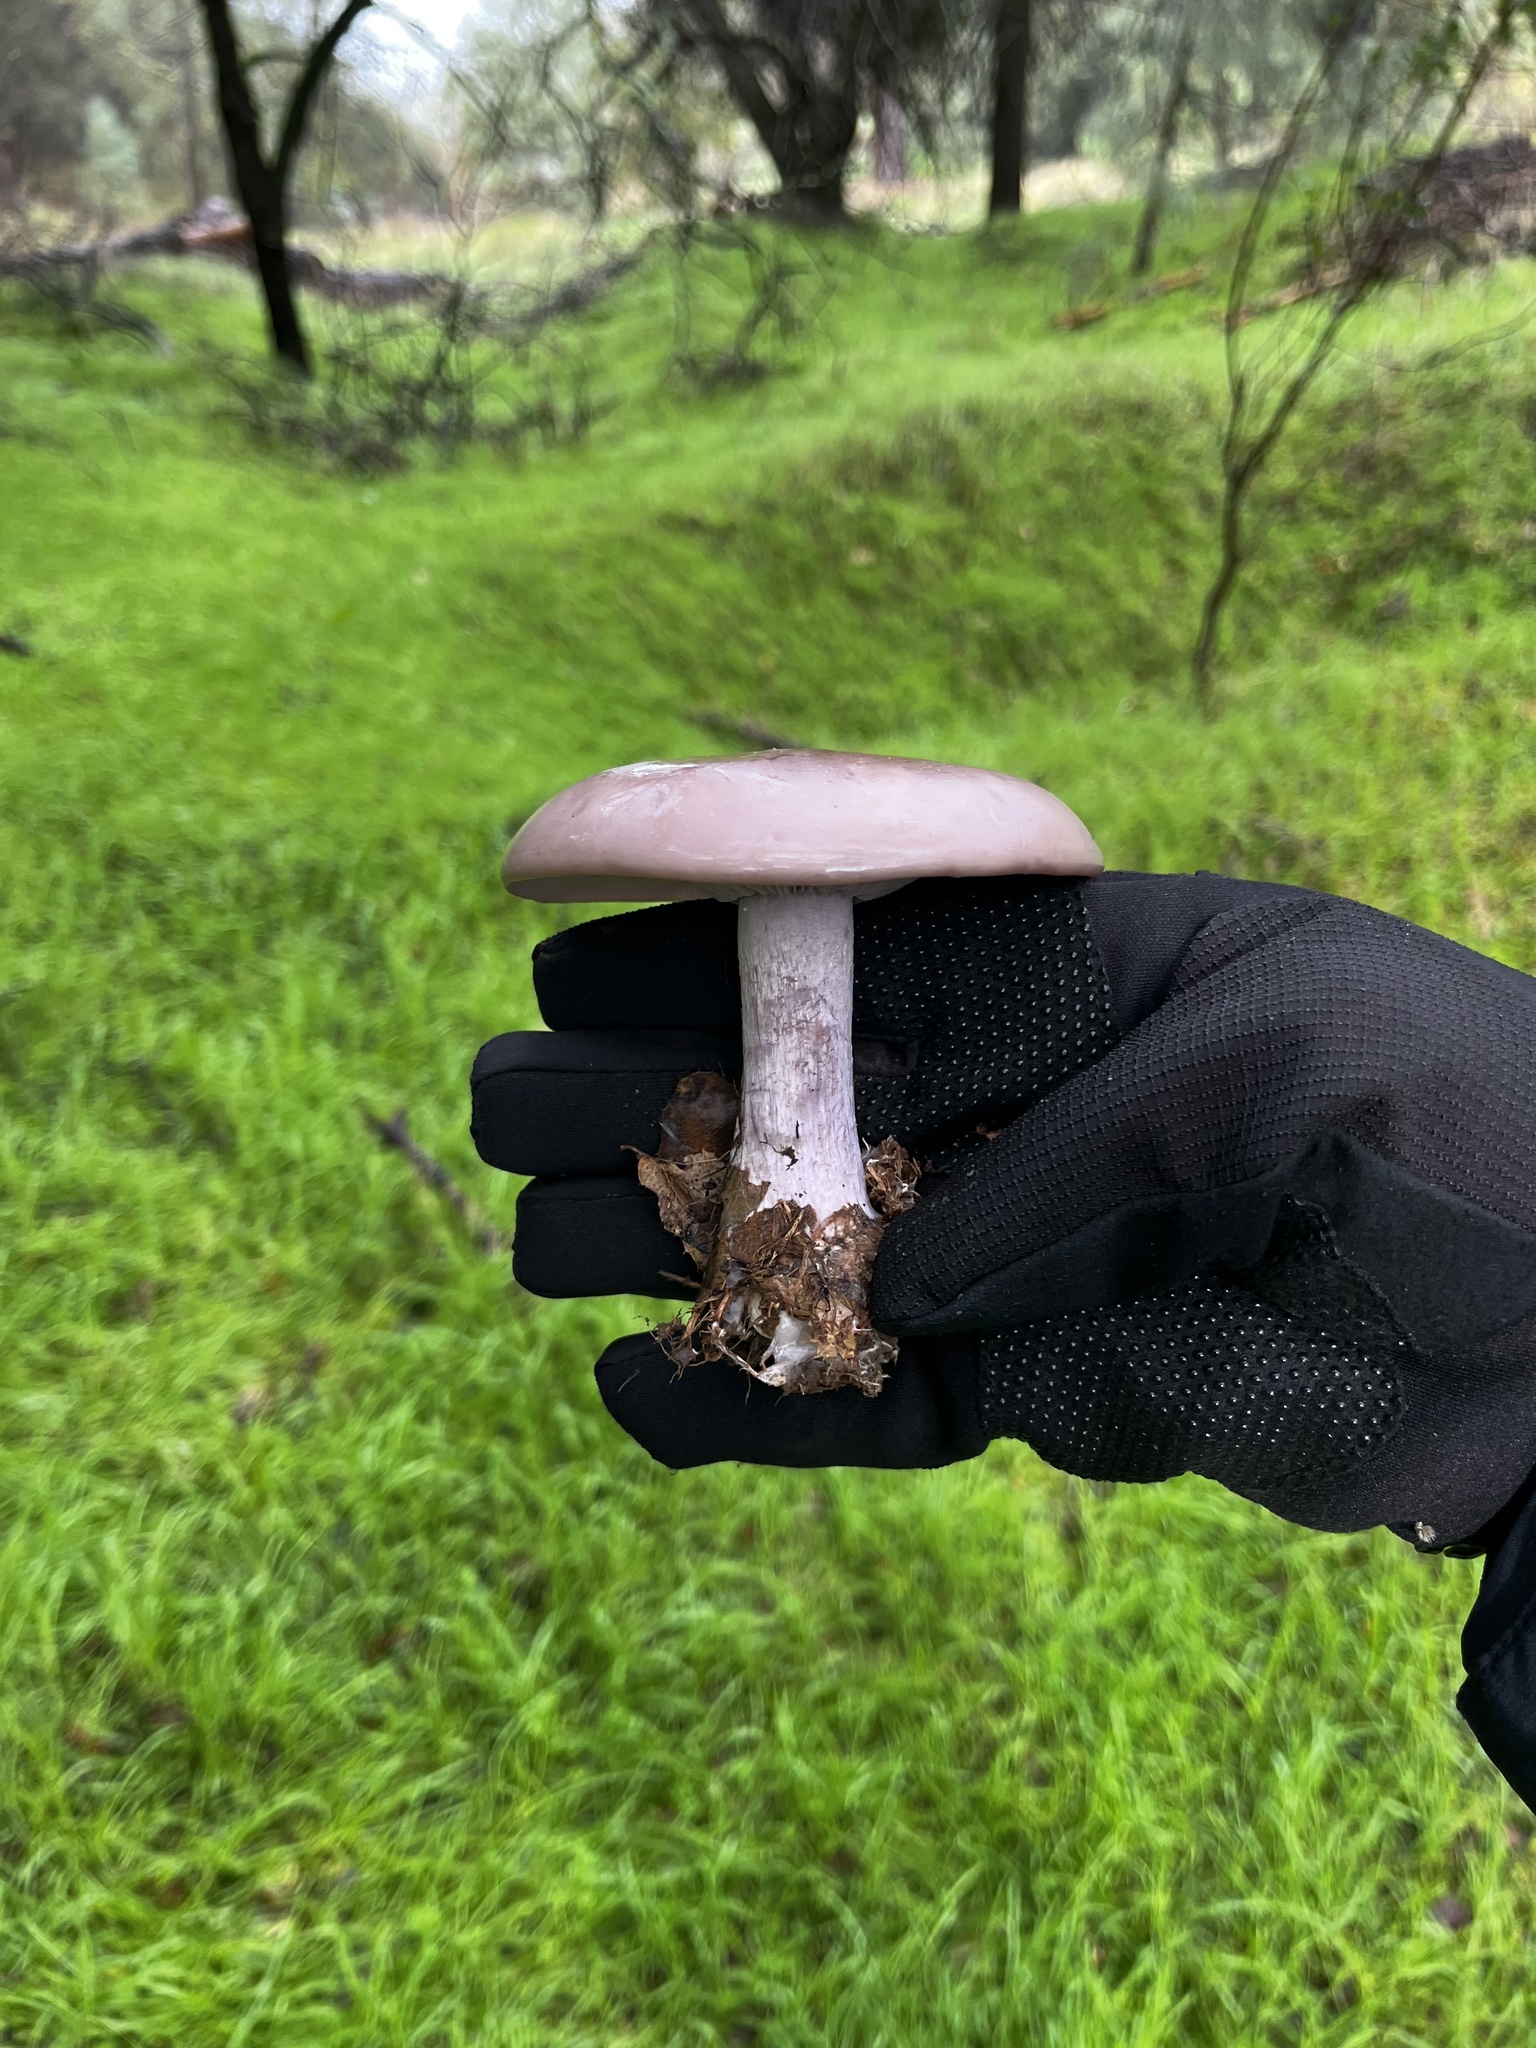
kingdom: Fungi
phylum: Basidiomycota
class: Agaricomycetes
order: Agaricales
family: Tricholomataceae
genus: Collybia
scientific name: Collybia
